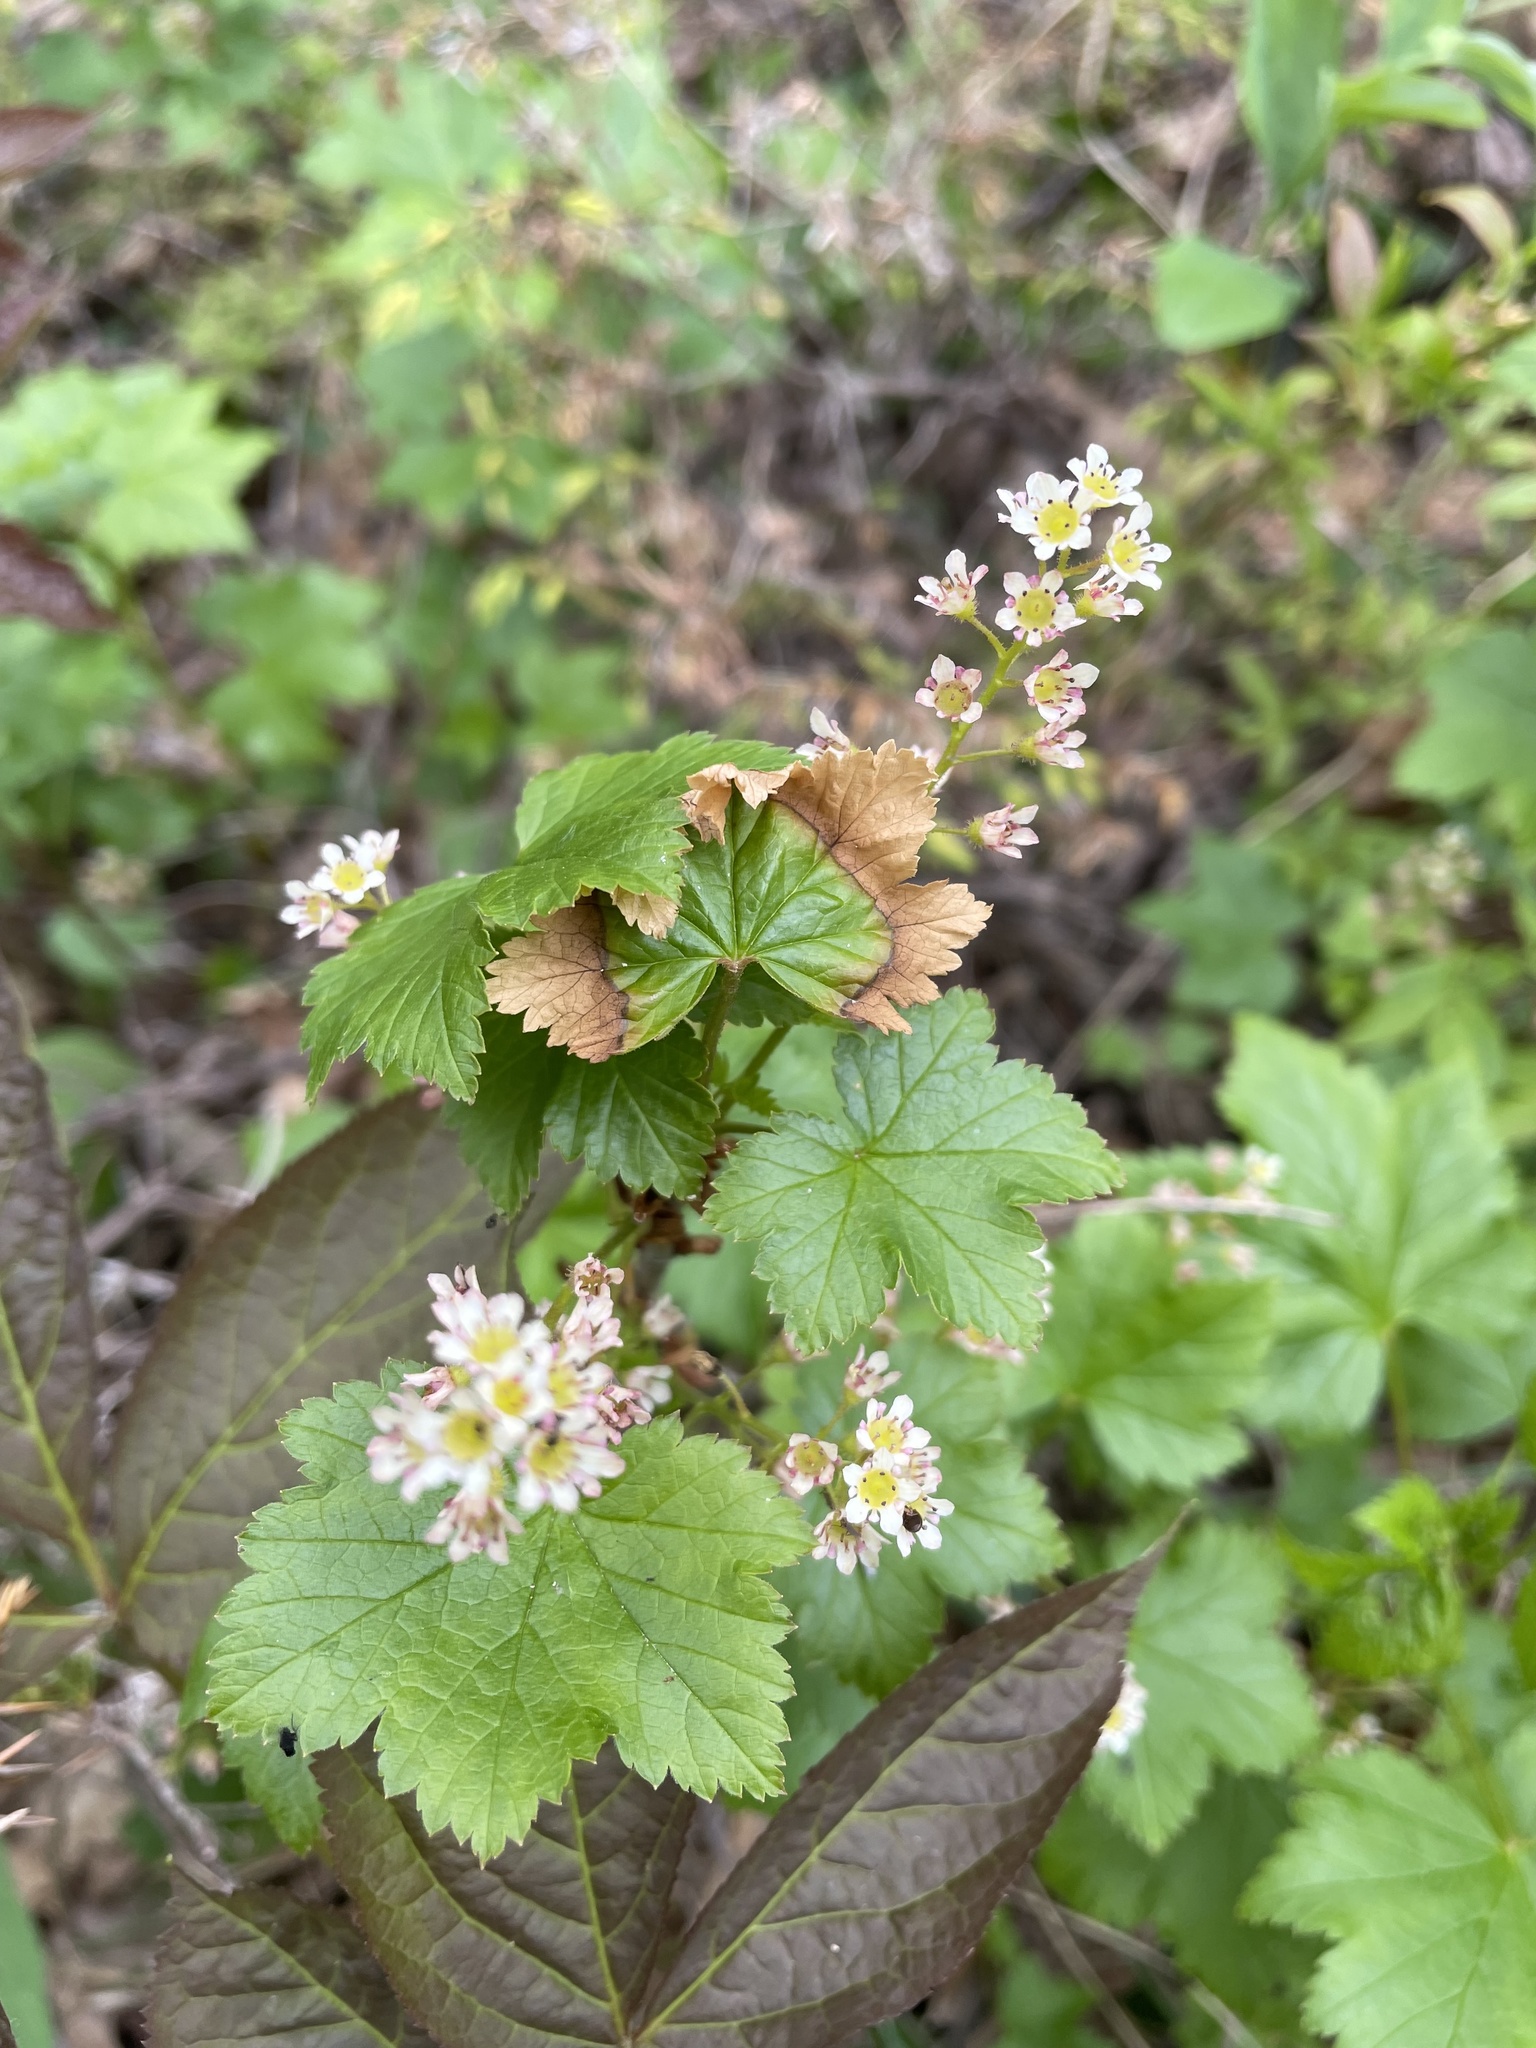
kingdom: Plantae
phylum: Tracheophyta
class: Magnoliopsida
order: Saxifragales
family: Grossulariaceae
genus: Ribes
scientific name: Ribes glandulosum
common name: Skunk currant
